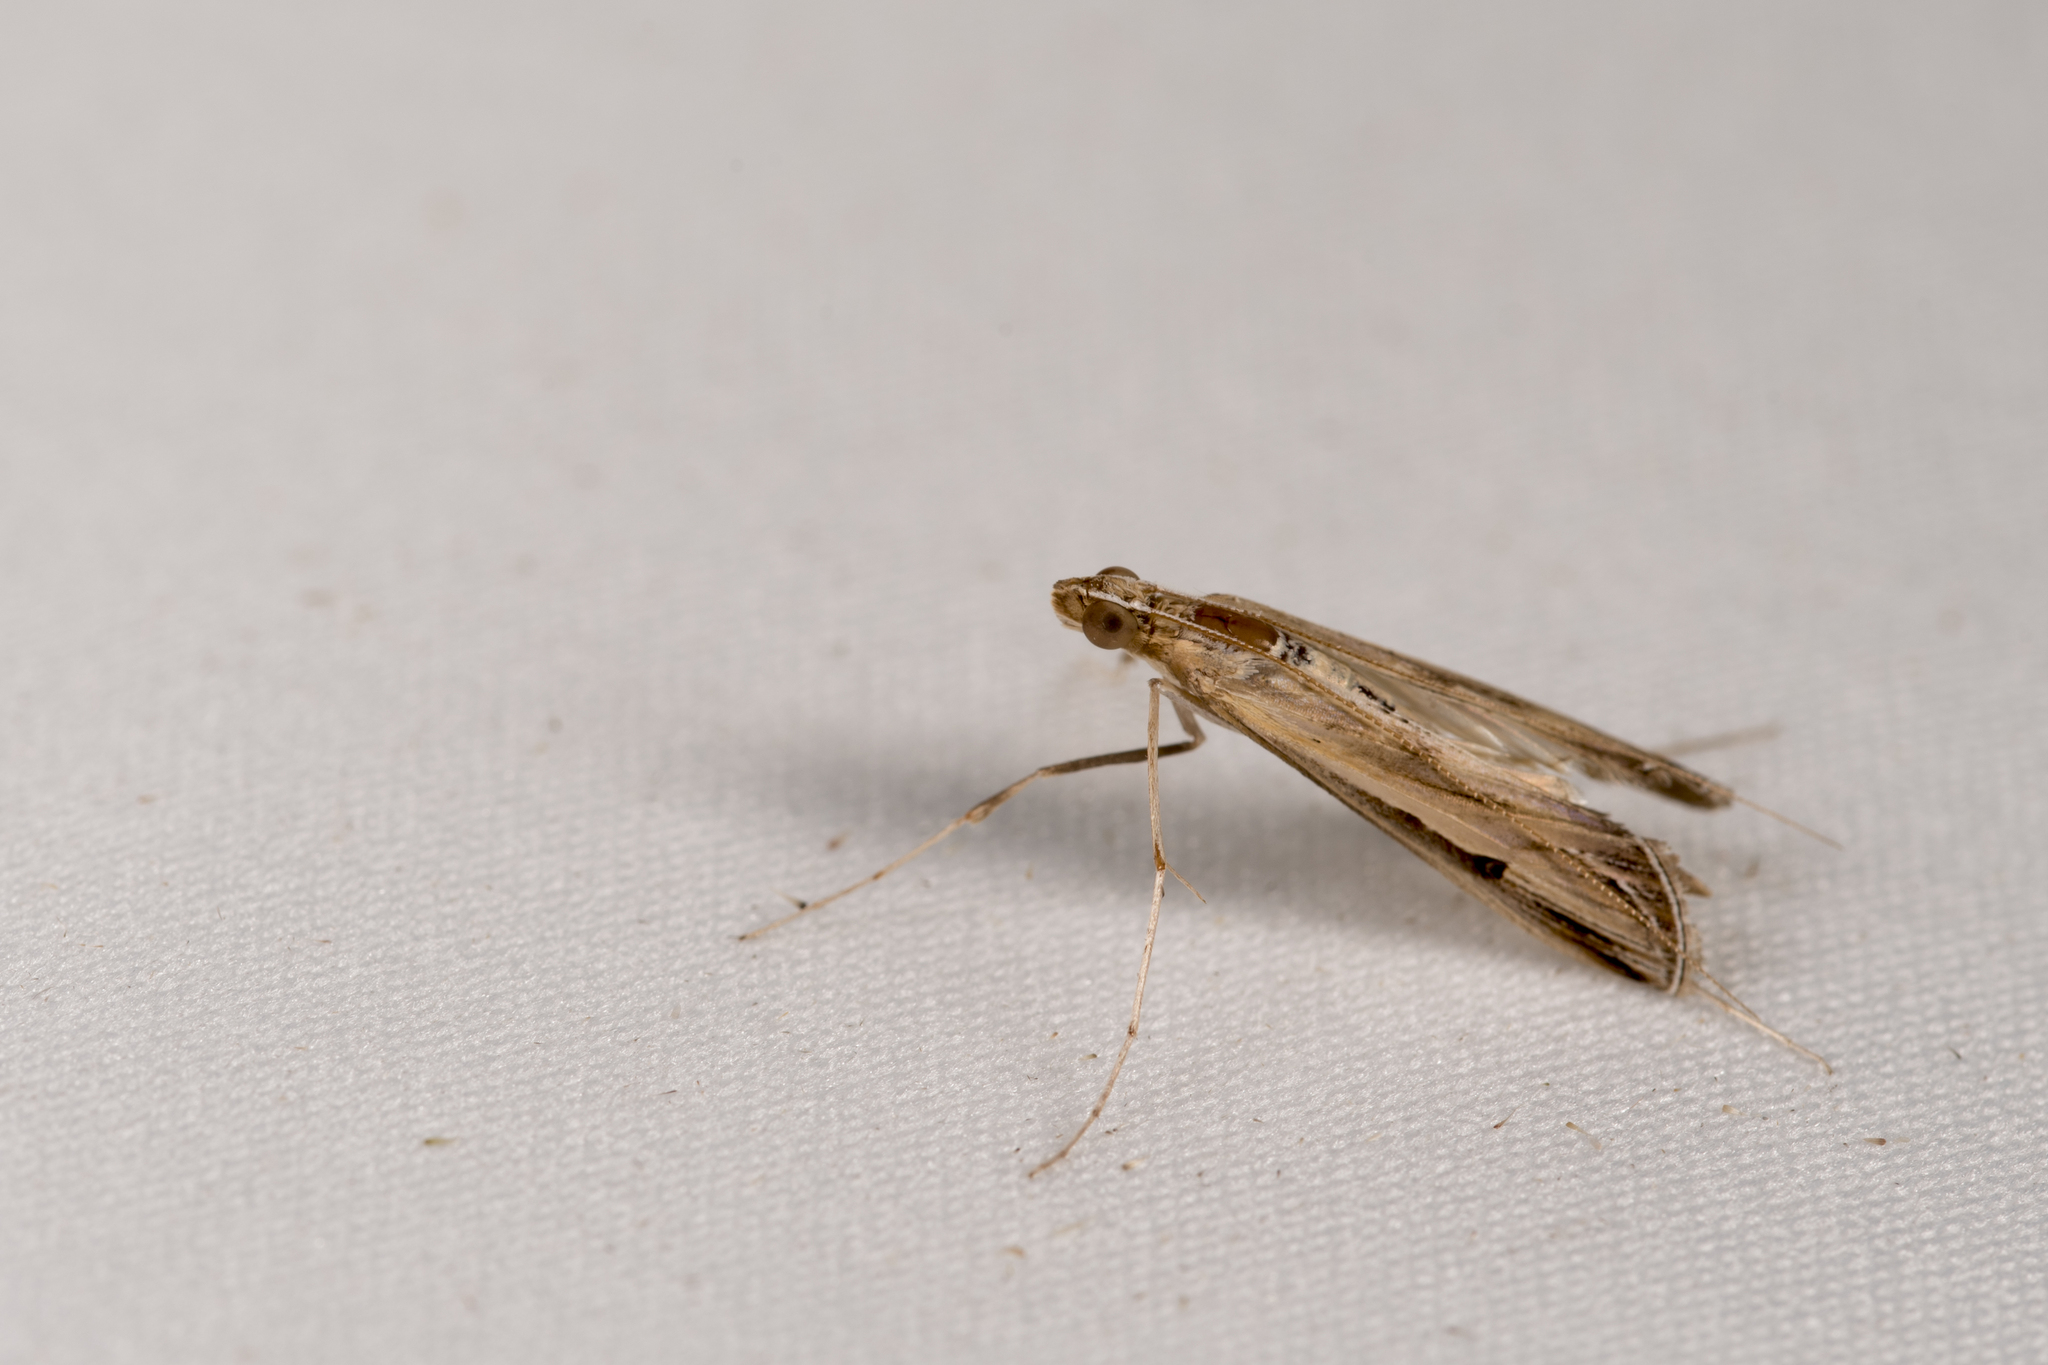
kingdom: Animalia
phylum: Arthropoda
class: Insecta
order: Lepidoptera
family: Crambidae
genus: Euclasta
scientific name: Euclasta
